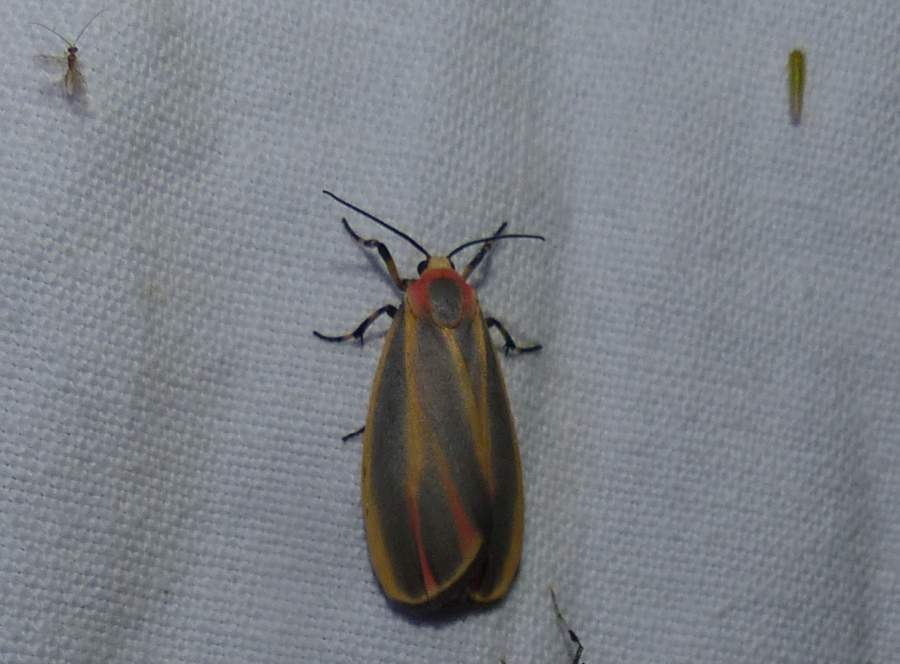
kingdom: Animalia
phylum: Arthropoda
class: Insecta
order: Lepidoptera
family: Erebidae
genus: Hypoprepia
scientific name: Hypoprepia fucosa
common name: Painted lichen moth
